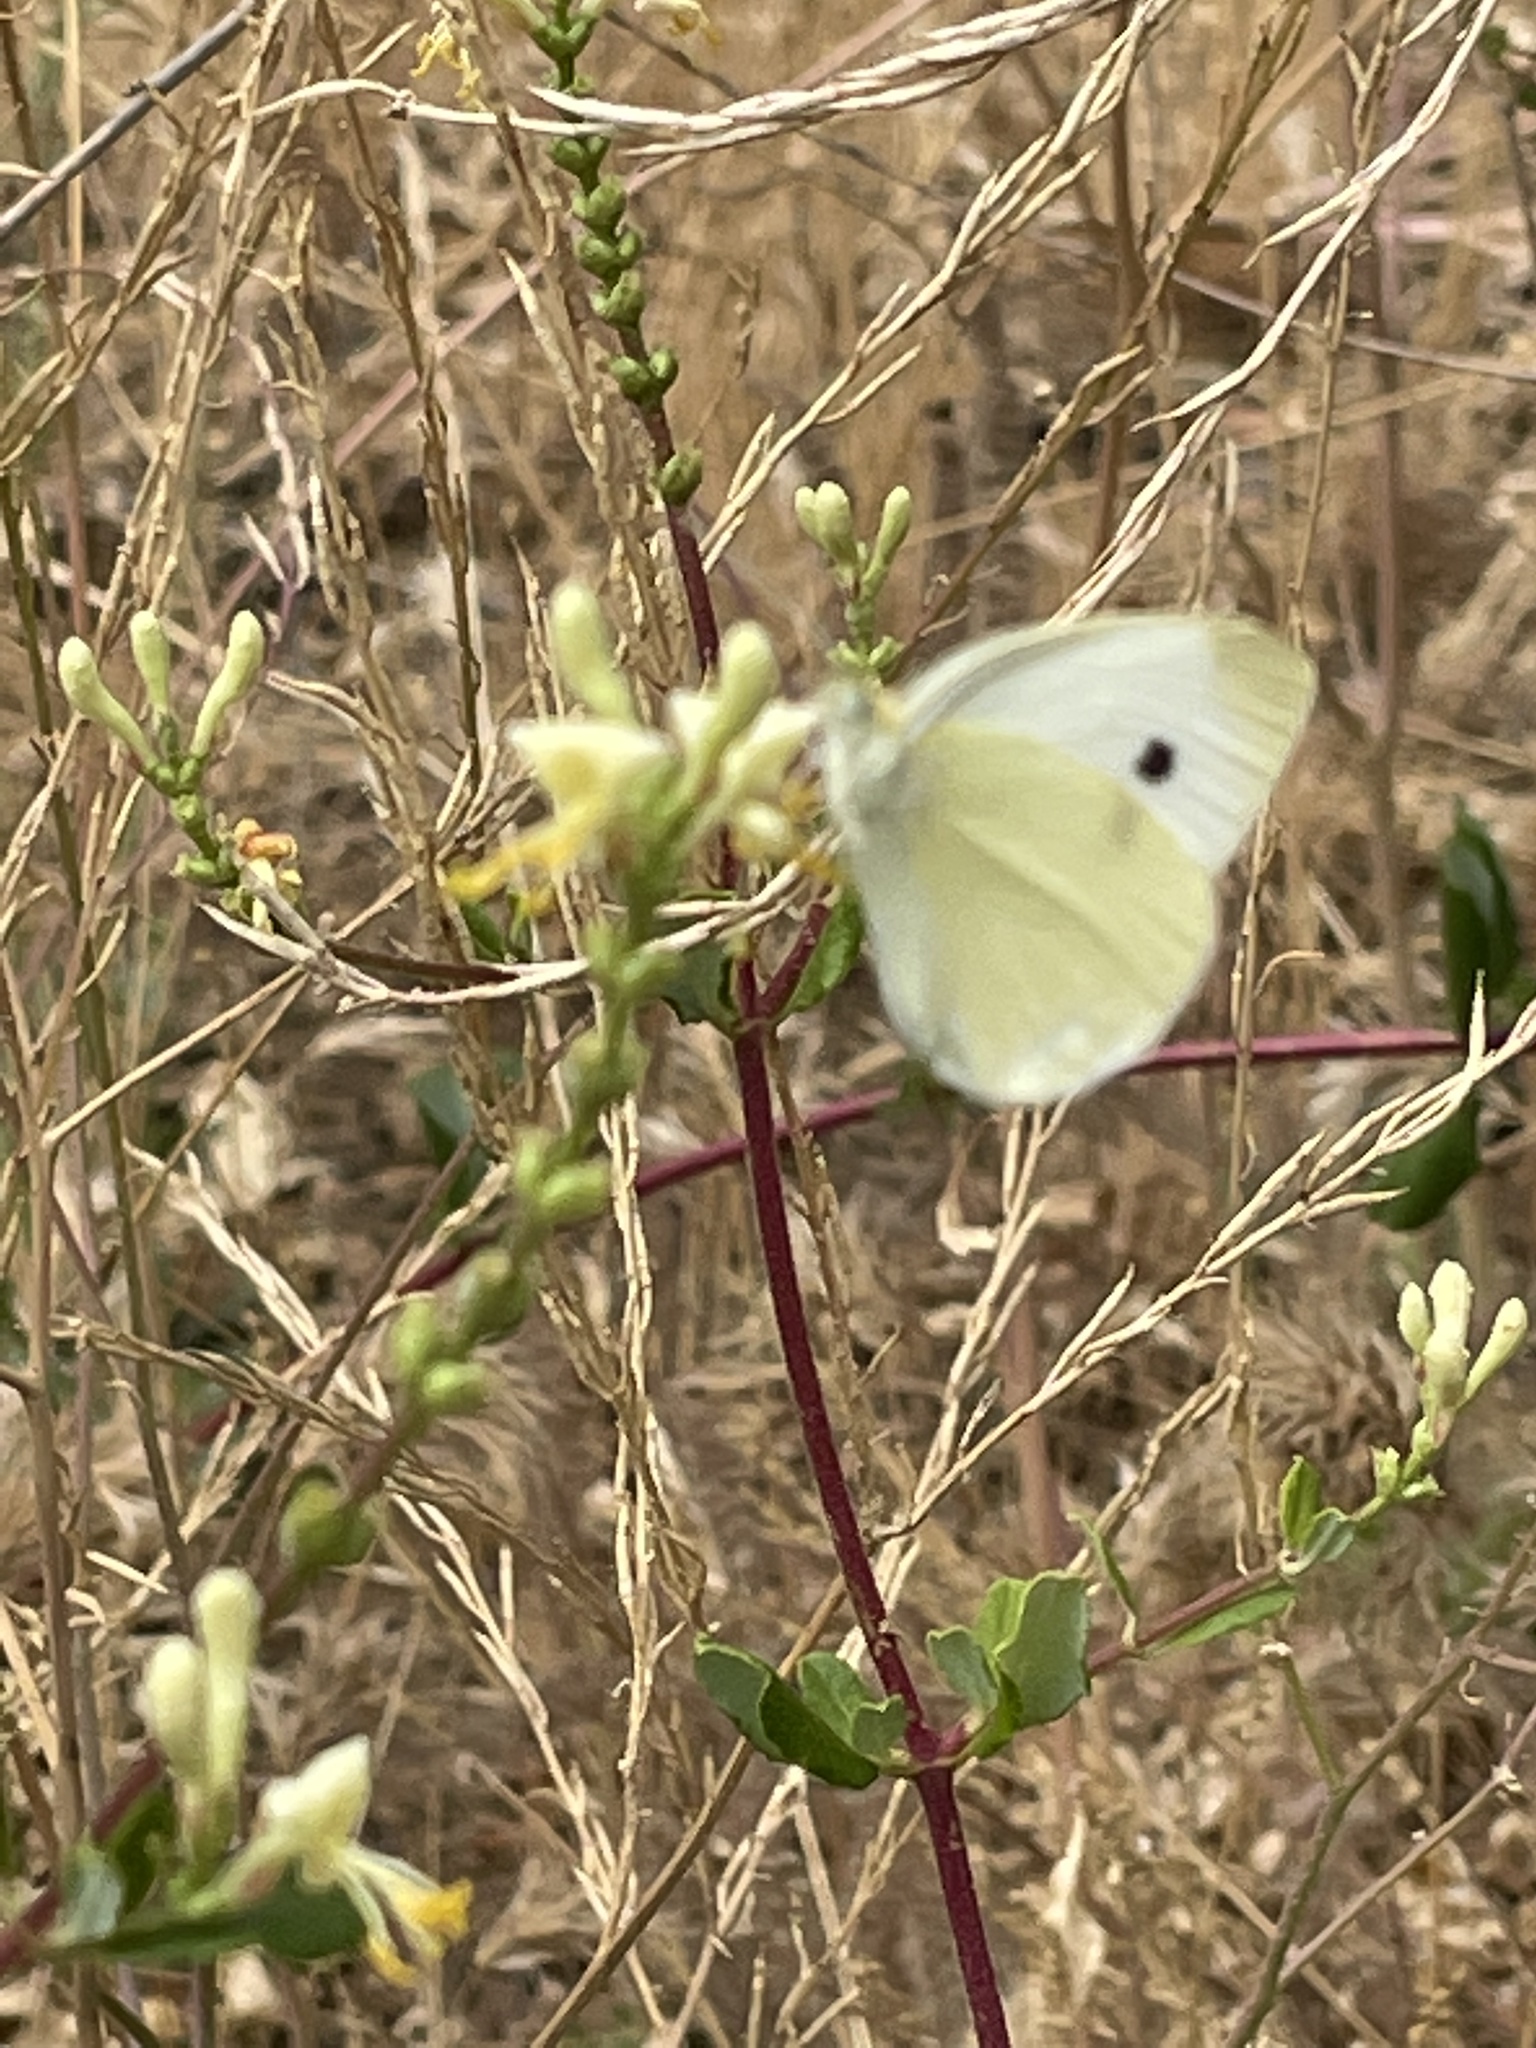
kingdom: Animalia
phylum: Arthropoda
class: Insecta
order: Lepidoptera
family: Pieridae
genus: Pieris
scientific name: Pieris rapae
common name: Small white
